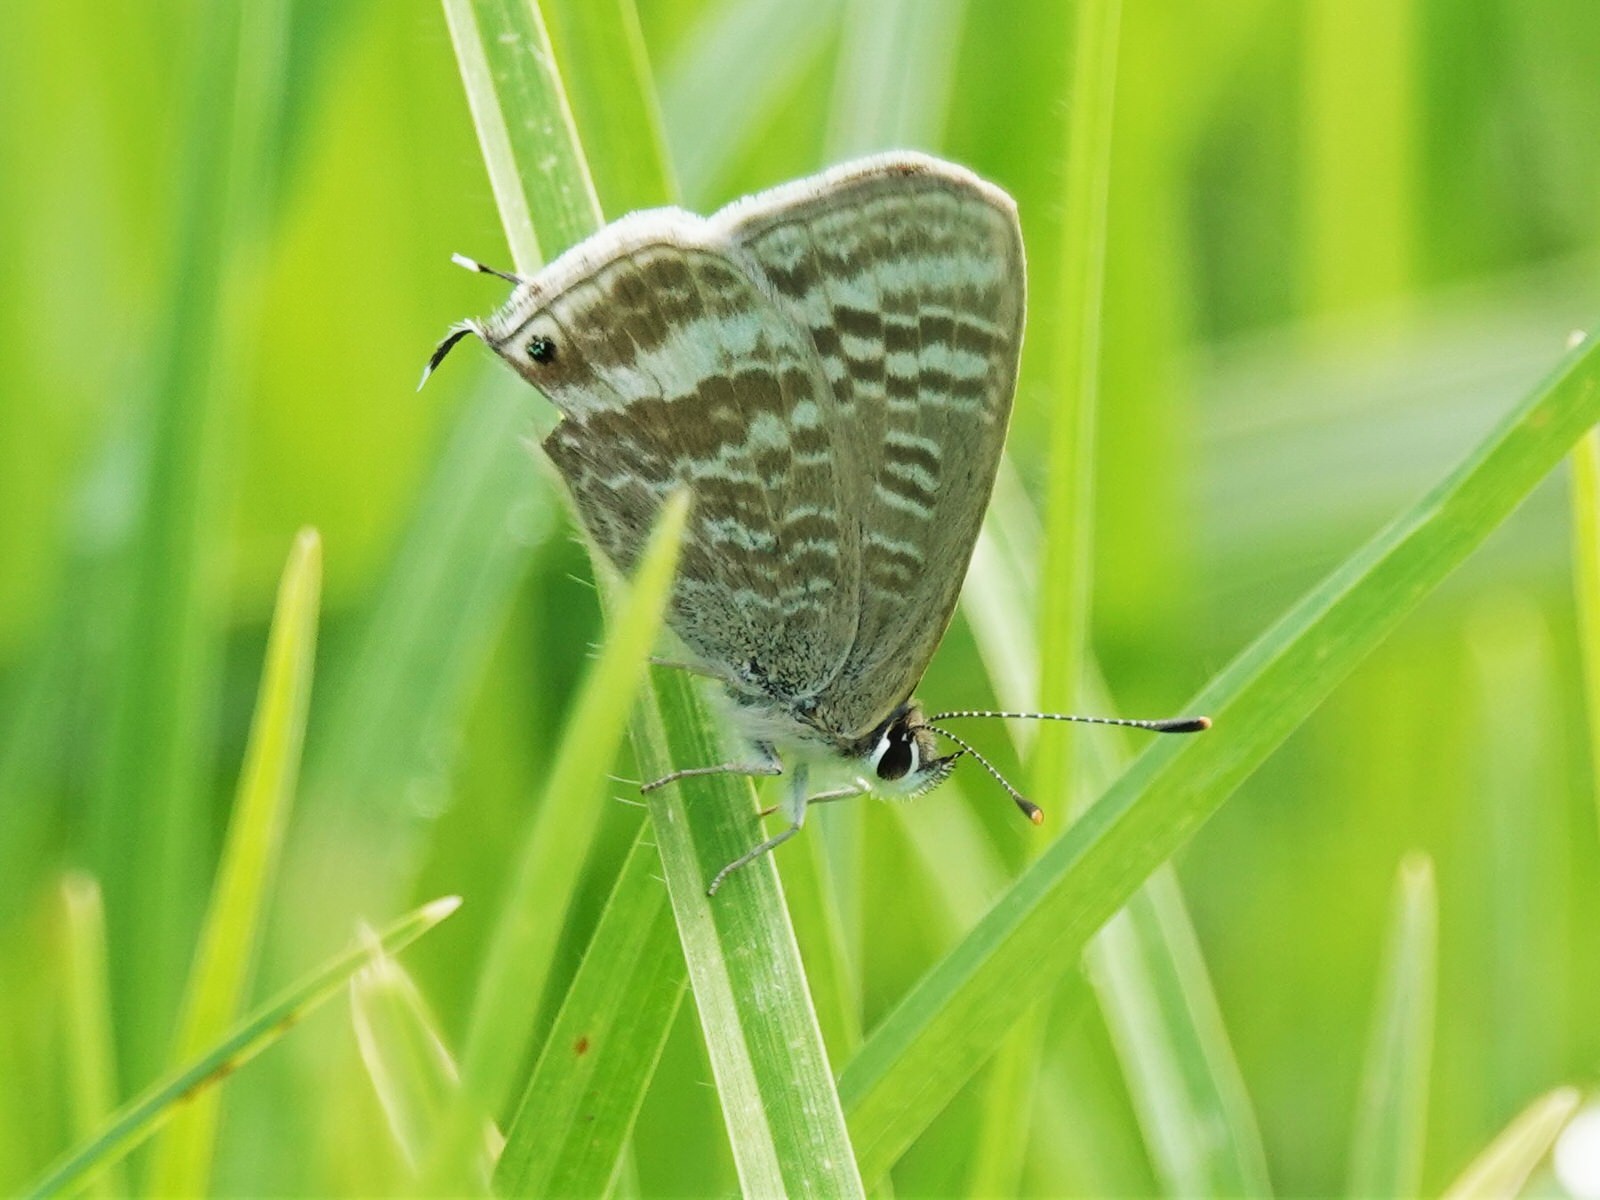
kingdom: Animalia
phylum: Arthropoda
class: Insecta
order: Lepidoptera
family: Lycaenidae
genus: Lampides
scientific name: Lampides boeticus
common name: Long-tailed blue
